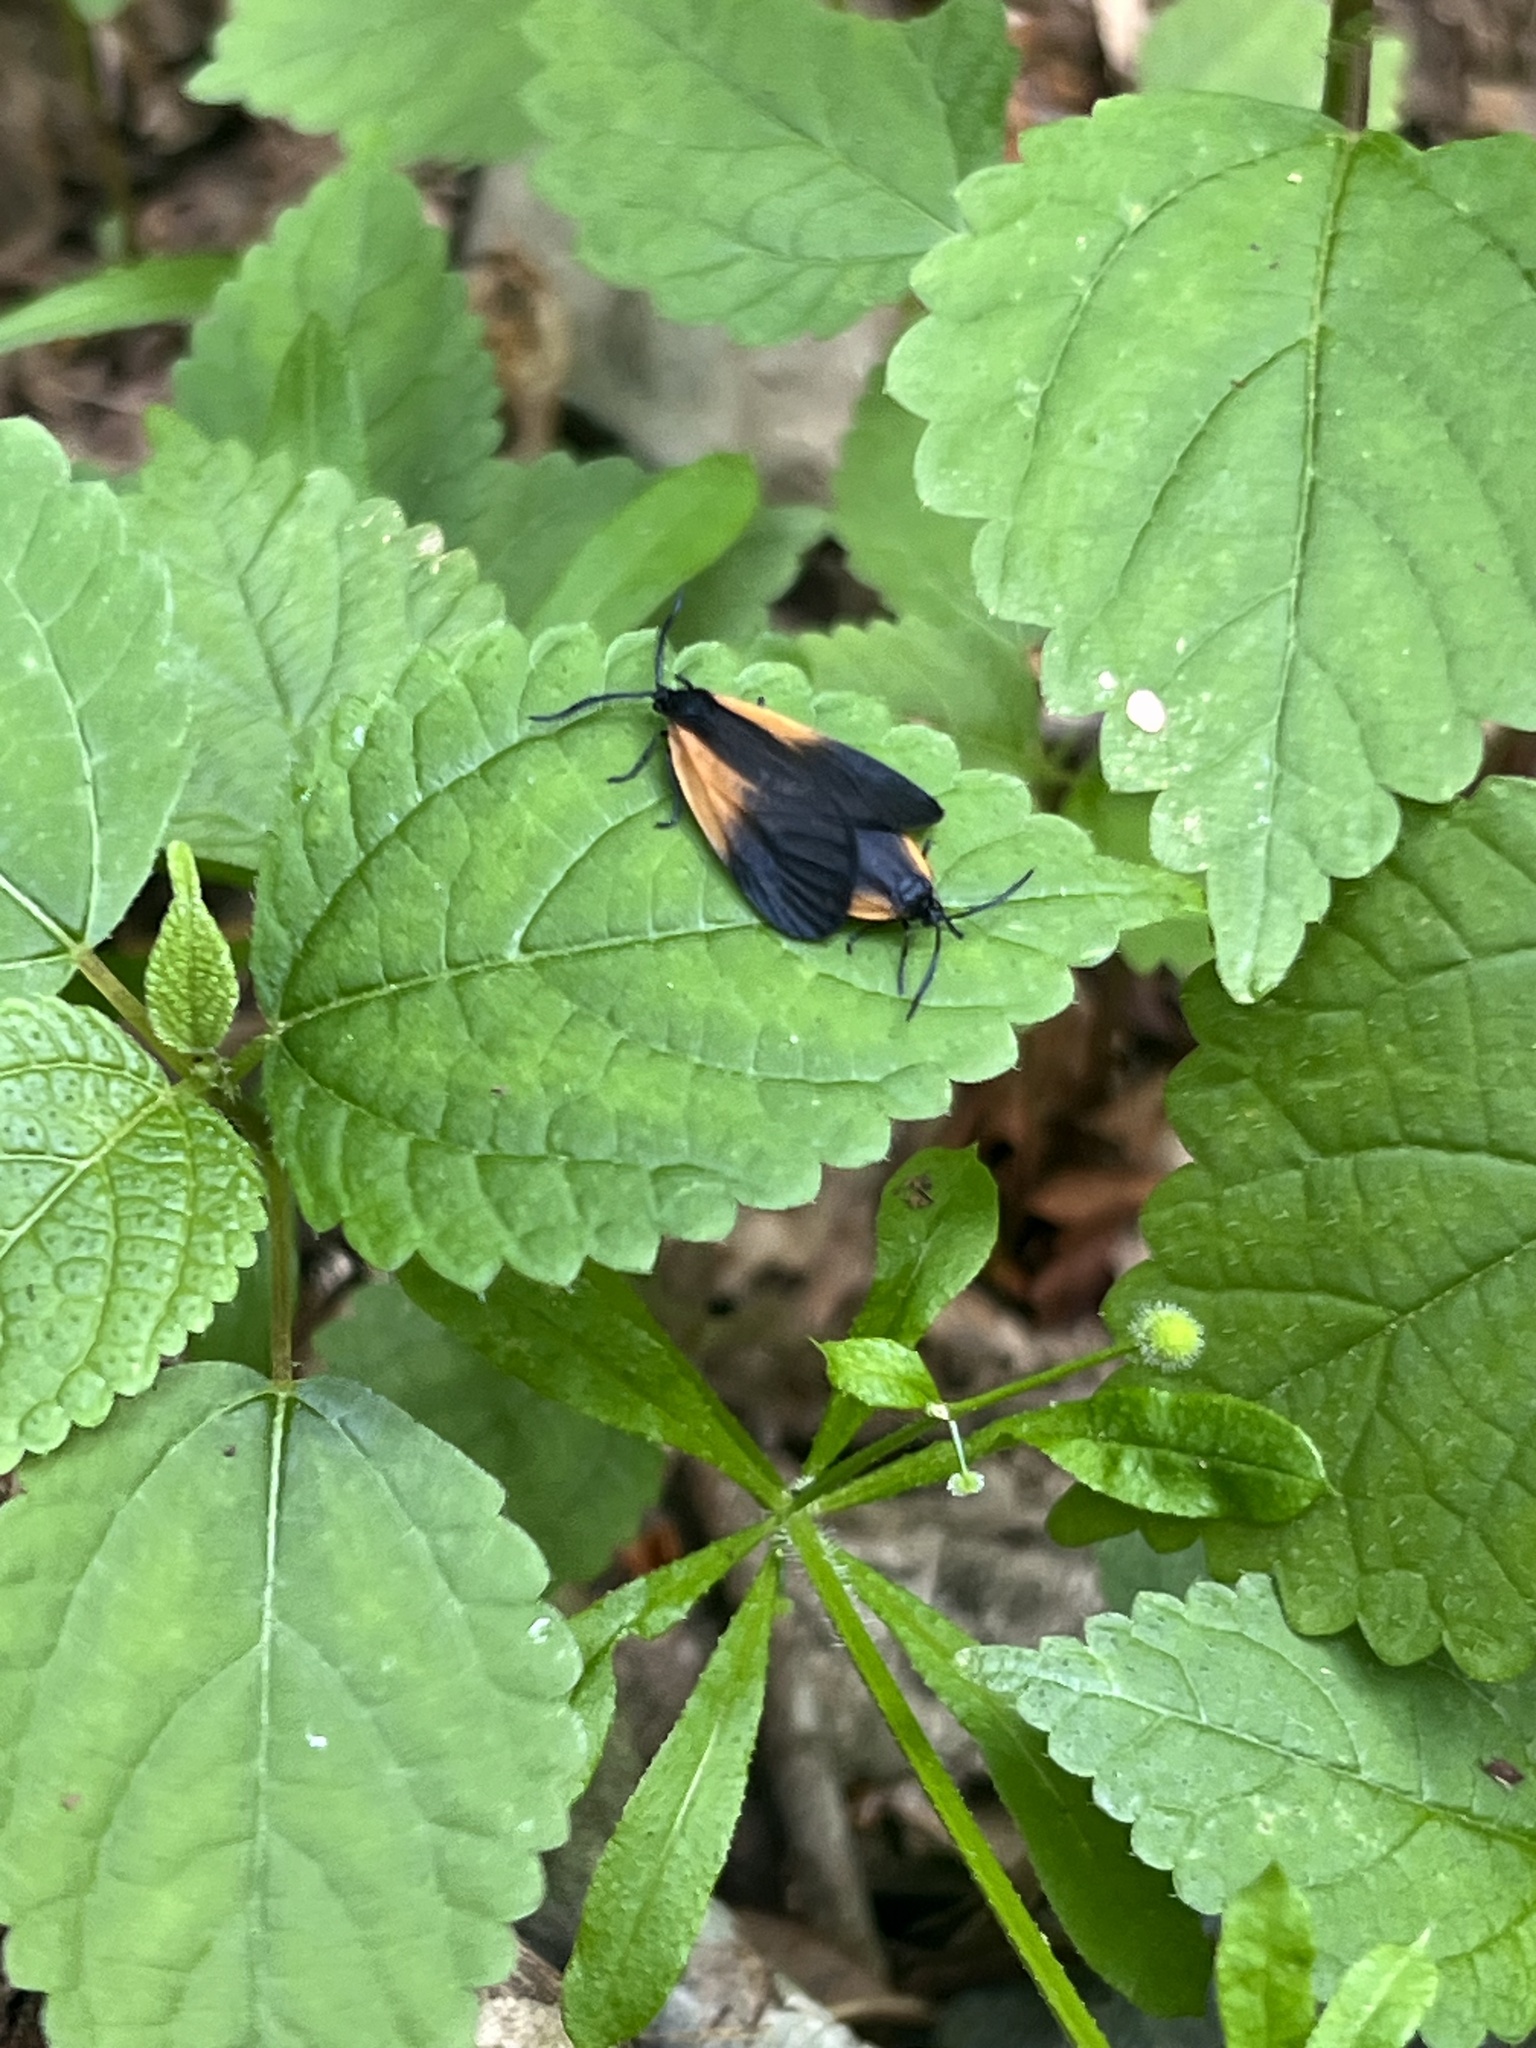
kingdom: Animalia
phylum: Arthropoda
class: Insecta
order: Lepidoptera
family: Zygaenidae
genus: Malthaca
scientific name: Malthaca dimidiata
